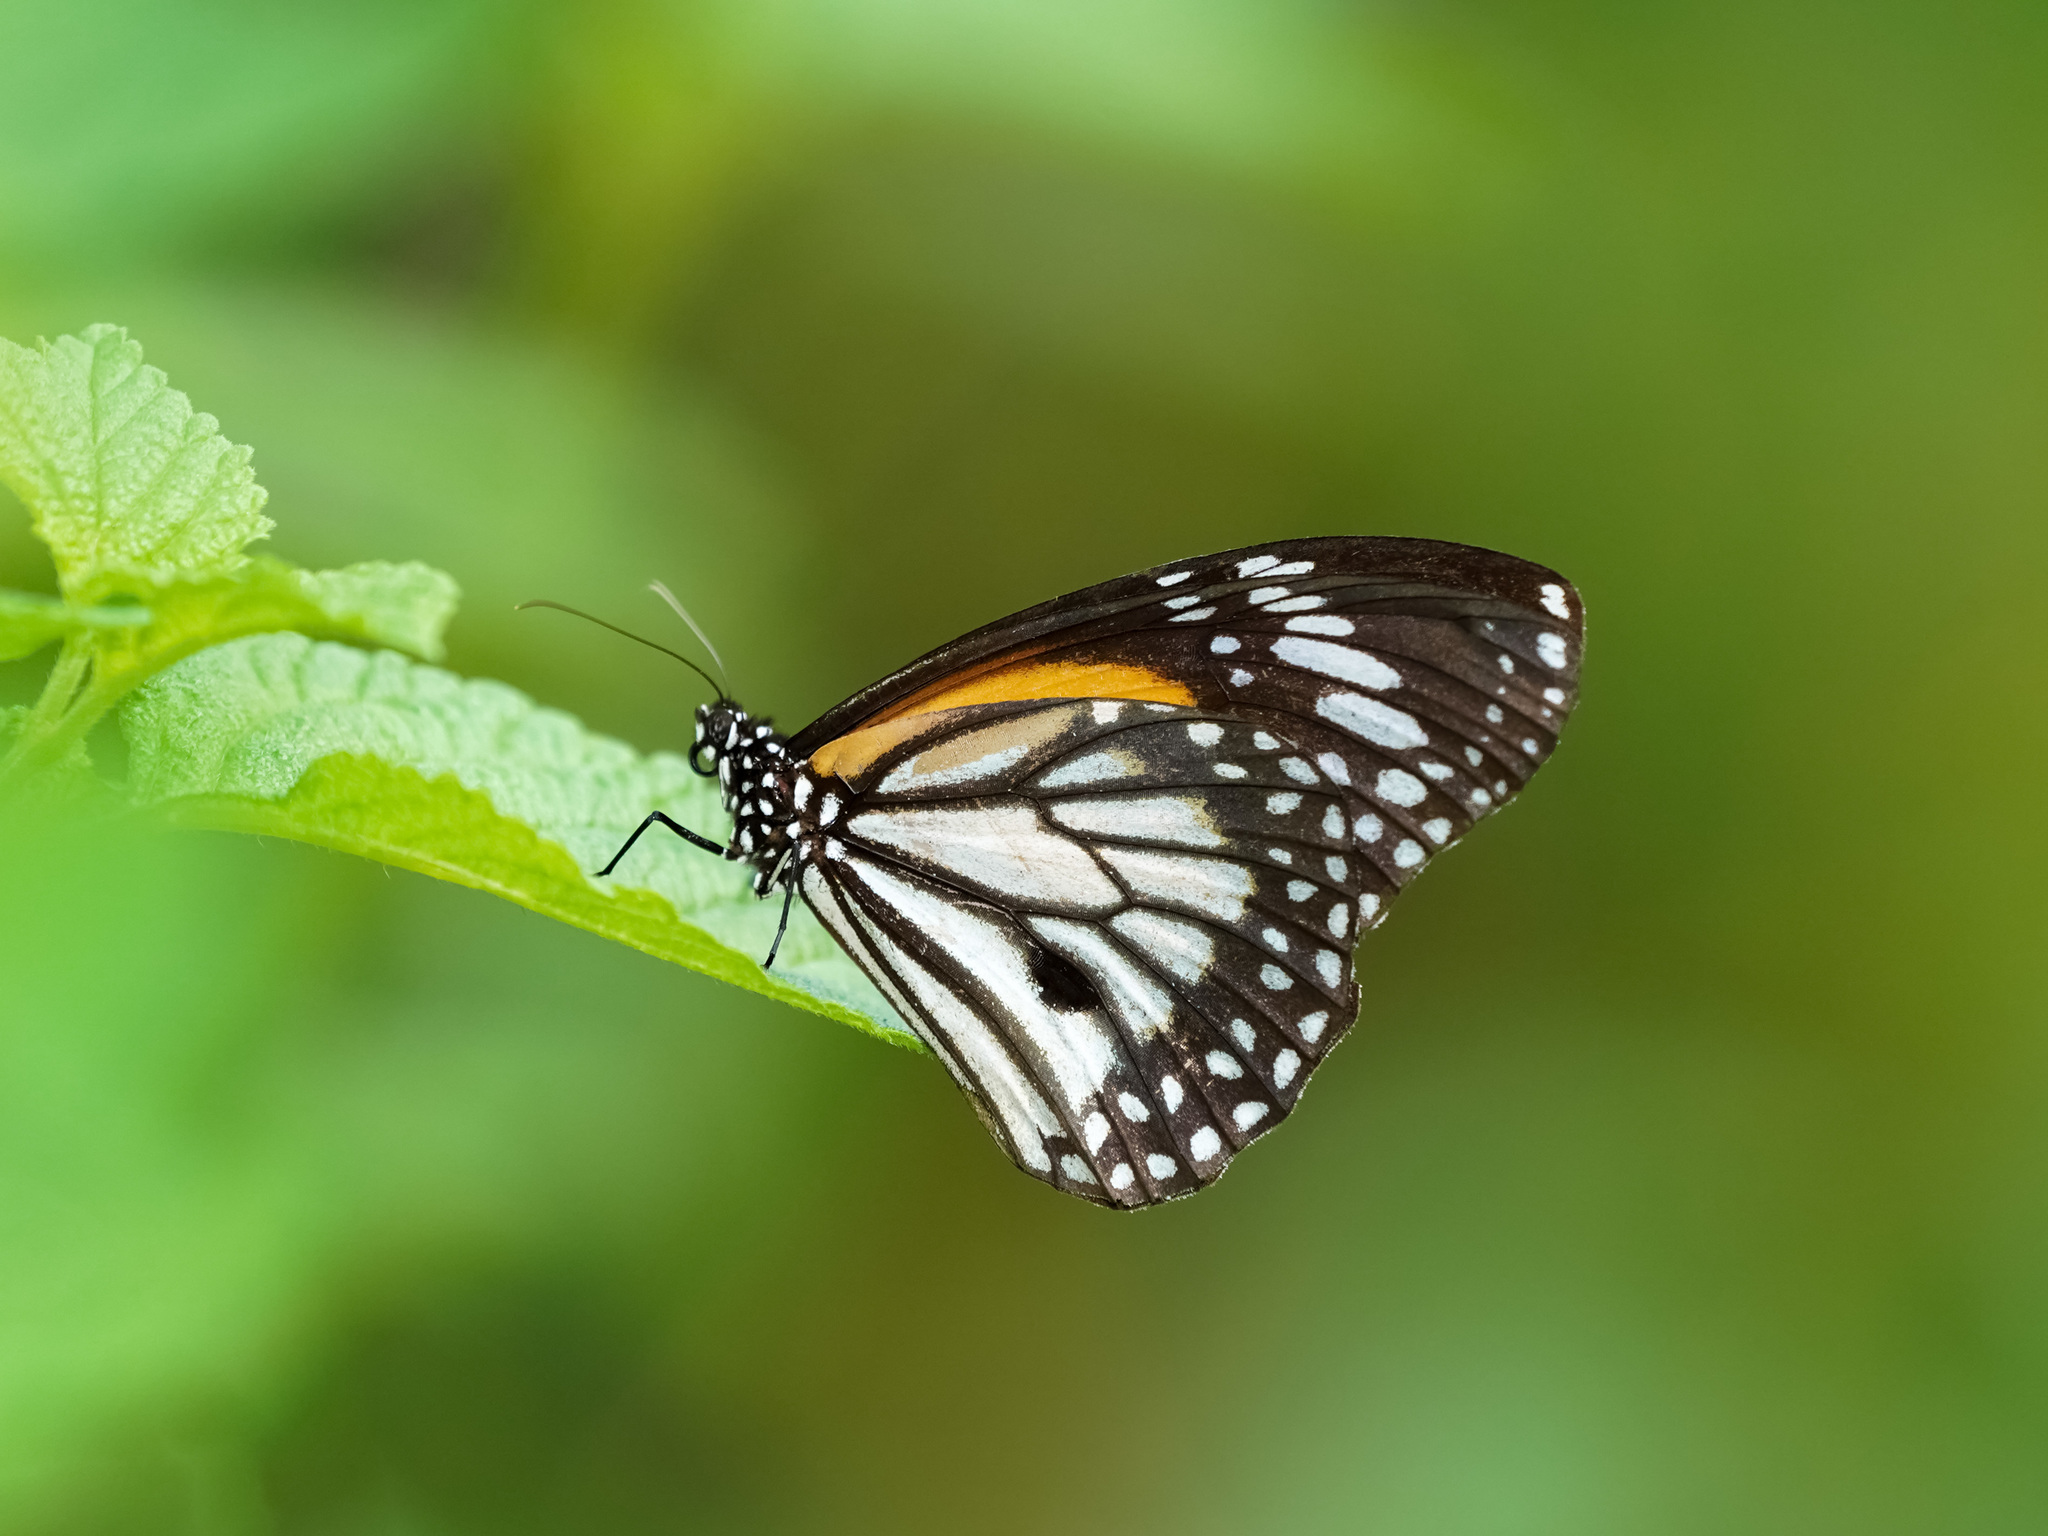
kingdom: Animalia
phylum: Arthropoda
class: Insecta
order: Lepidoptera
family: Nymphalidae
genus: Danaus
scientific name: Danaus melanippus
